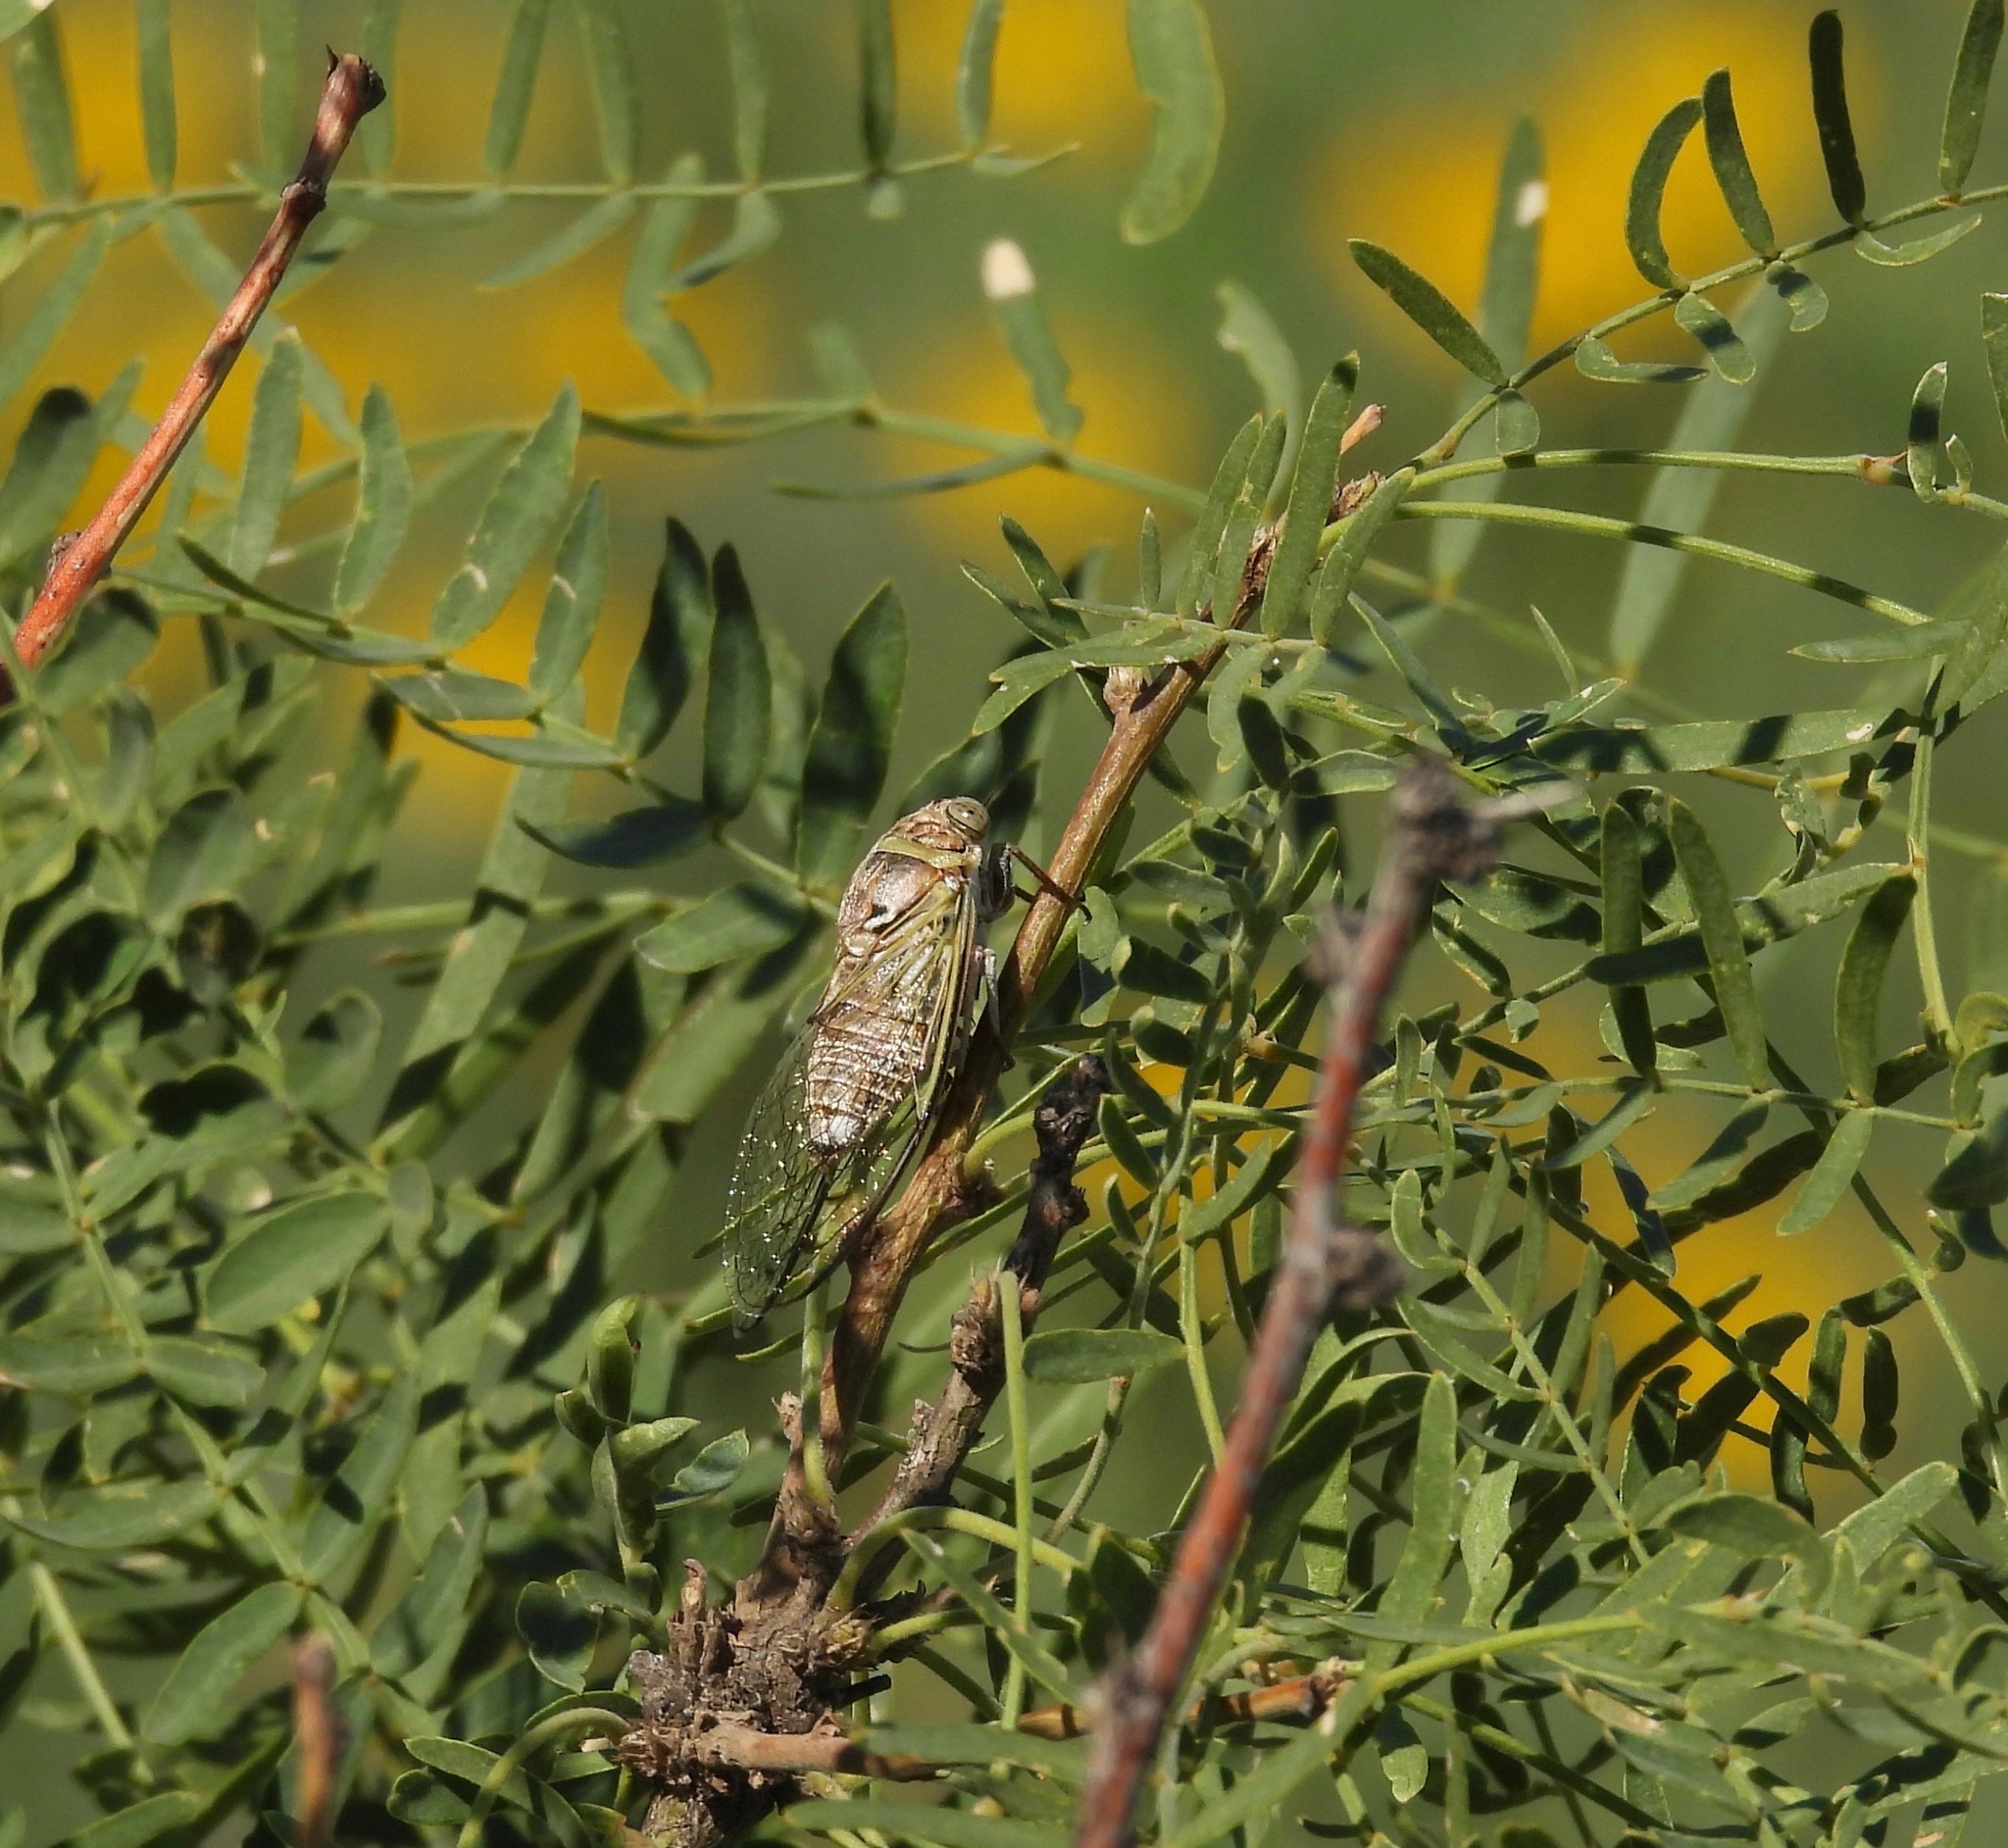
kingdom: Animalia
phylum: Arthropoda
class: Insecta
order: Hemiptera
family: Cicadidae
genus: Diceroprocta
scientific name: Diceroprocta texana
